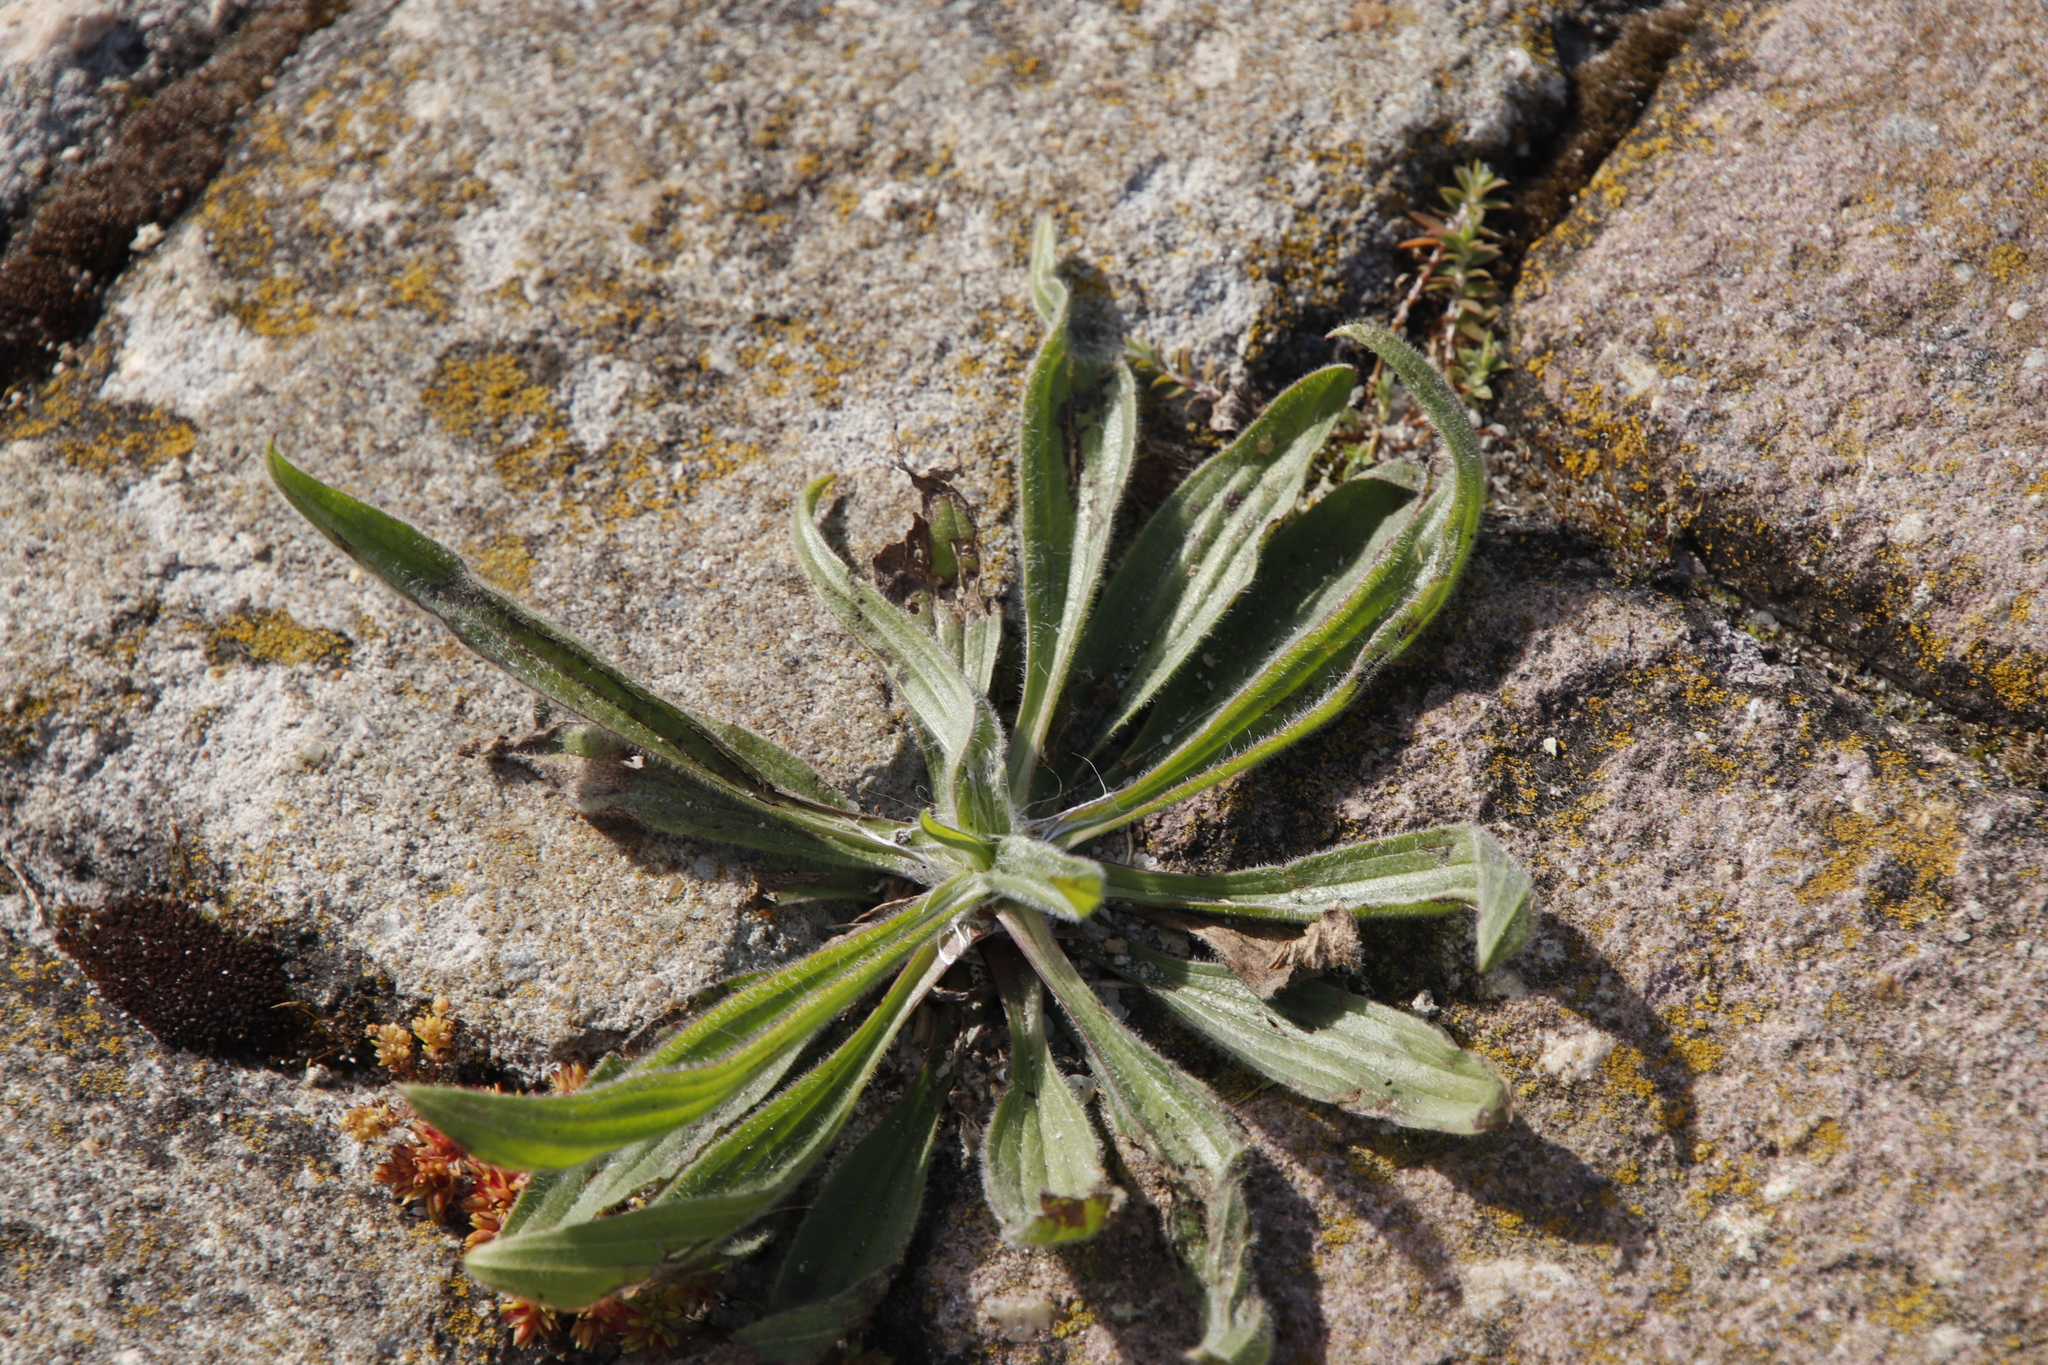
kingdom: Plantae
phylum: Tracheophyta
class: Magnoliopsida
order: Lamiales
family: Plantaginaceae
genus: Plantago
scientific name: Plantago lanceolata
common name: Ribwort plantain
